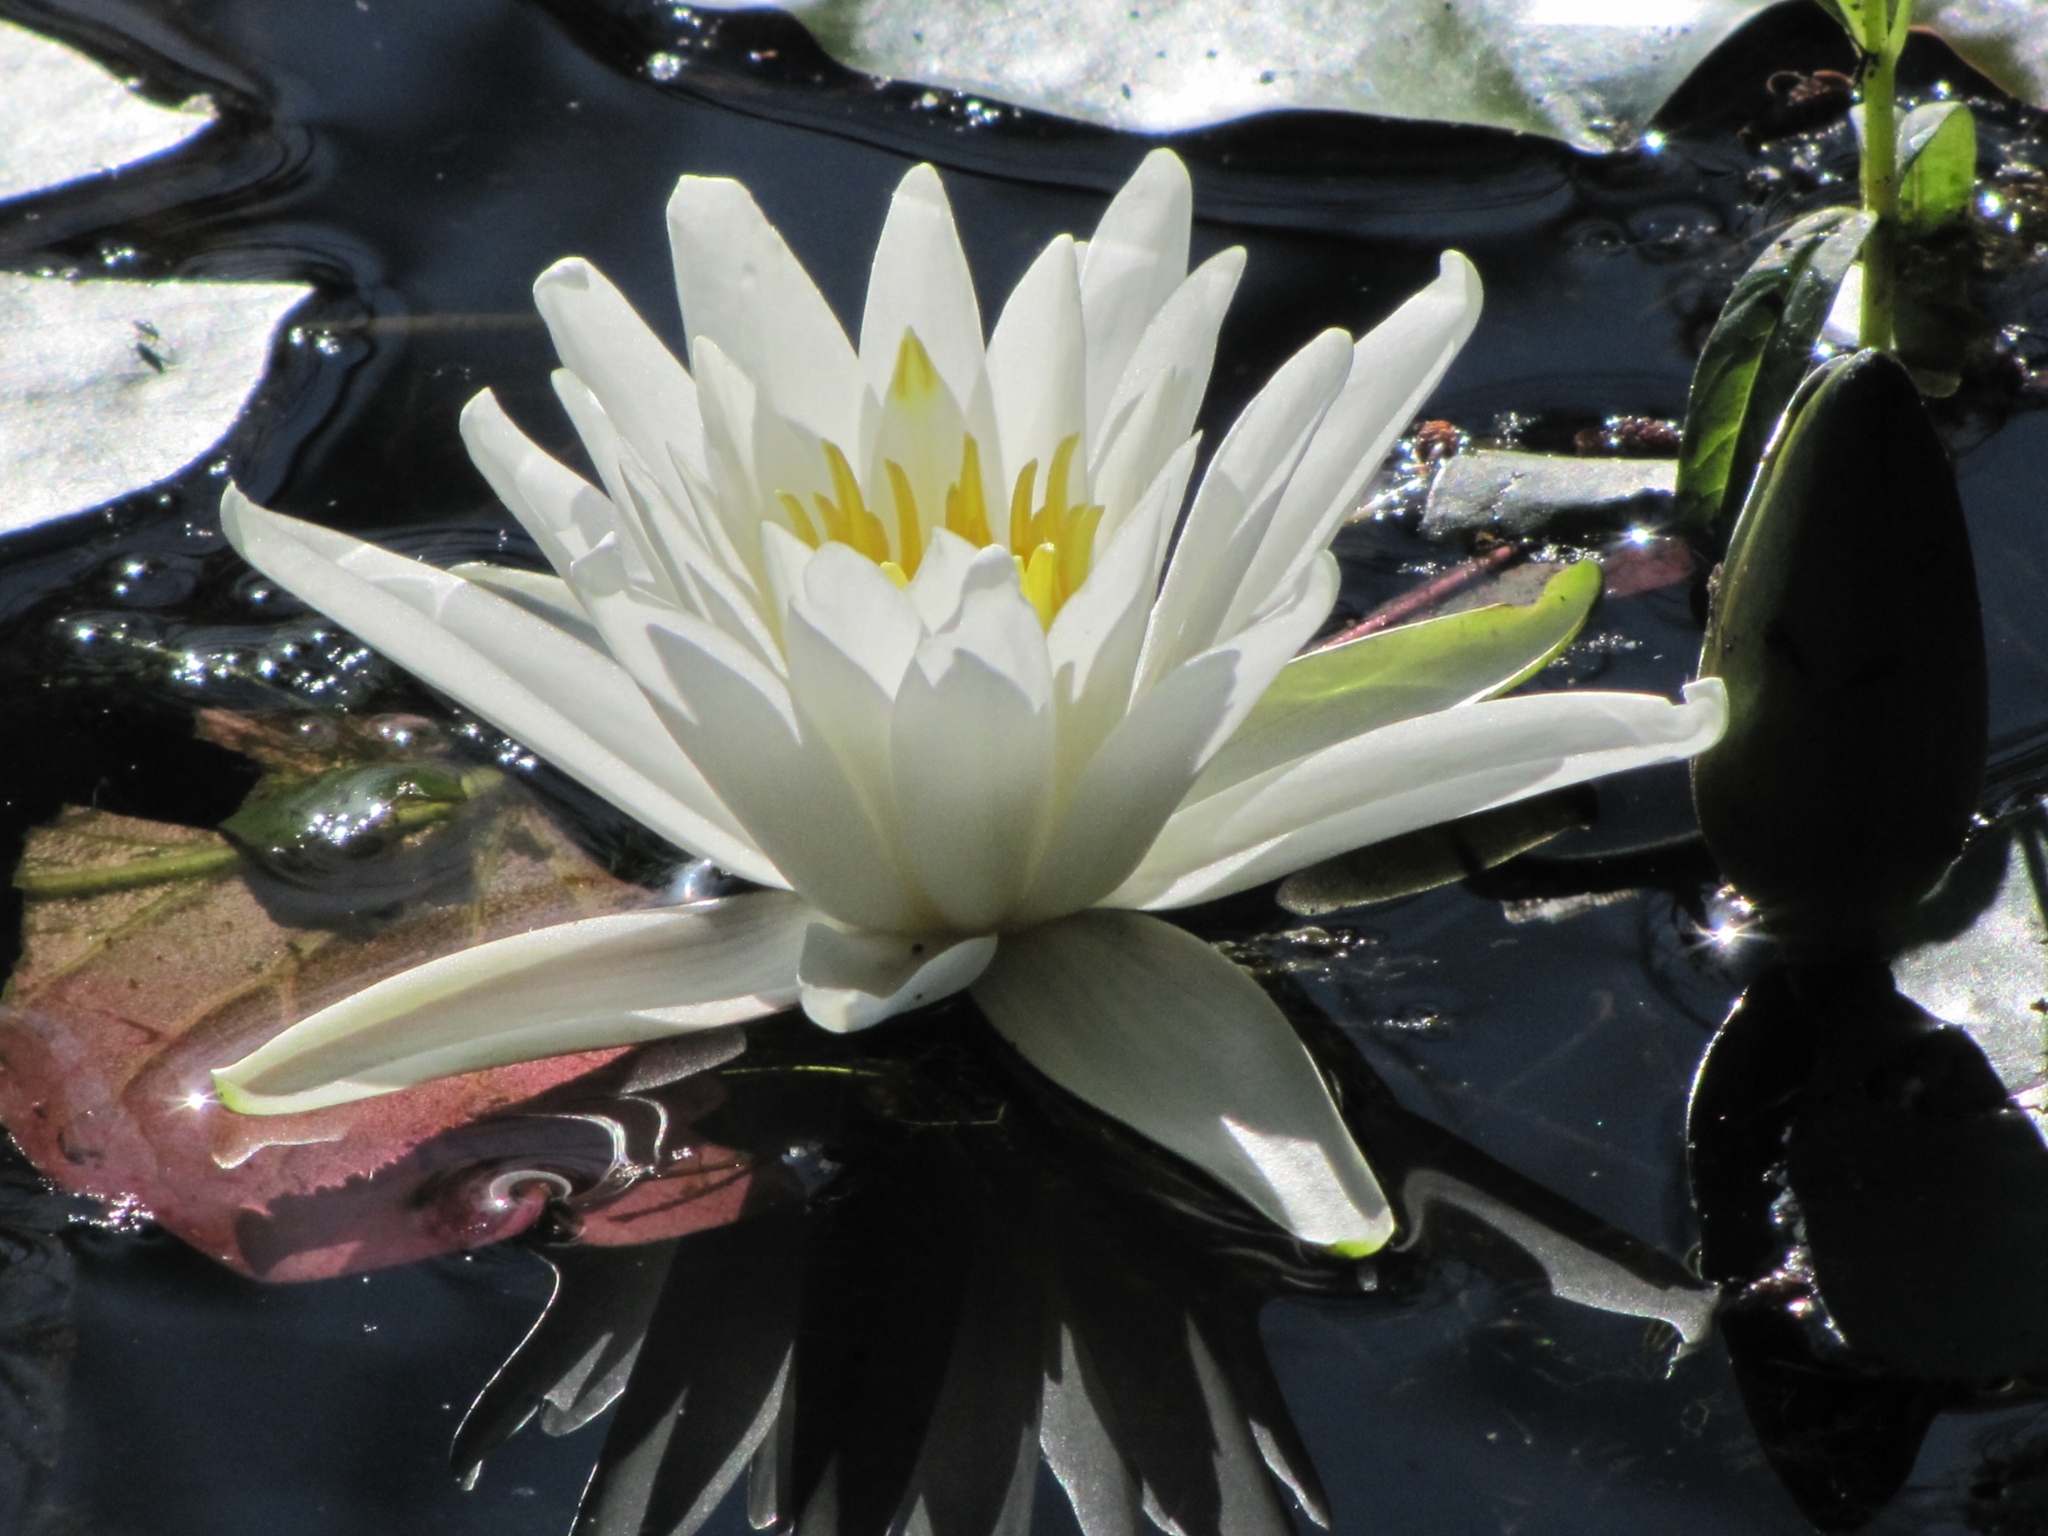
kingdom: Plantae
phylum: Tracheophyta
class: Magnoliopsida
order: Nymphaeales
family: Nymphaeaceae
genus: Nymphaea
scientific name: Nymphaea odorata
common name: Fragrant water-lily
